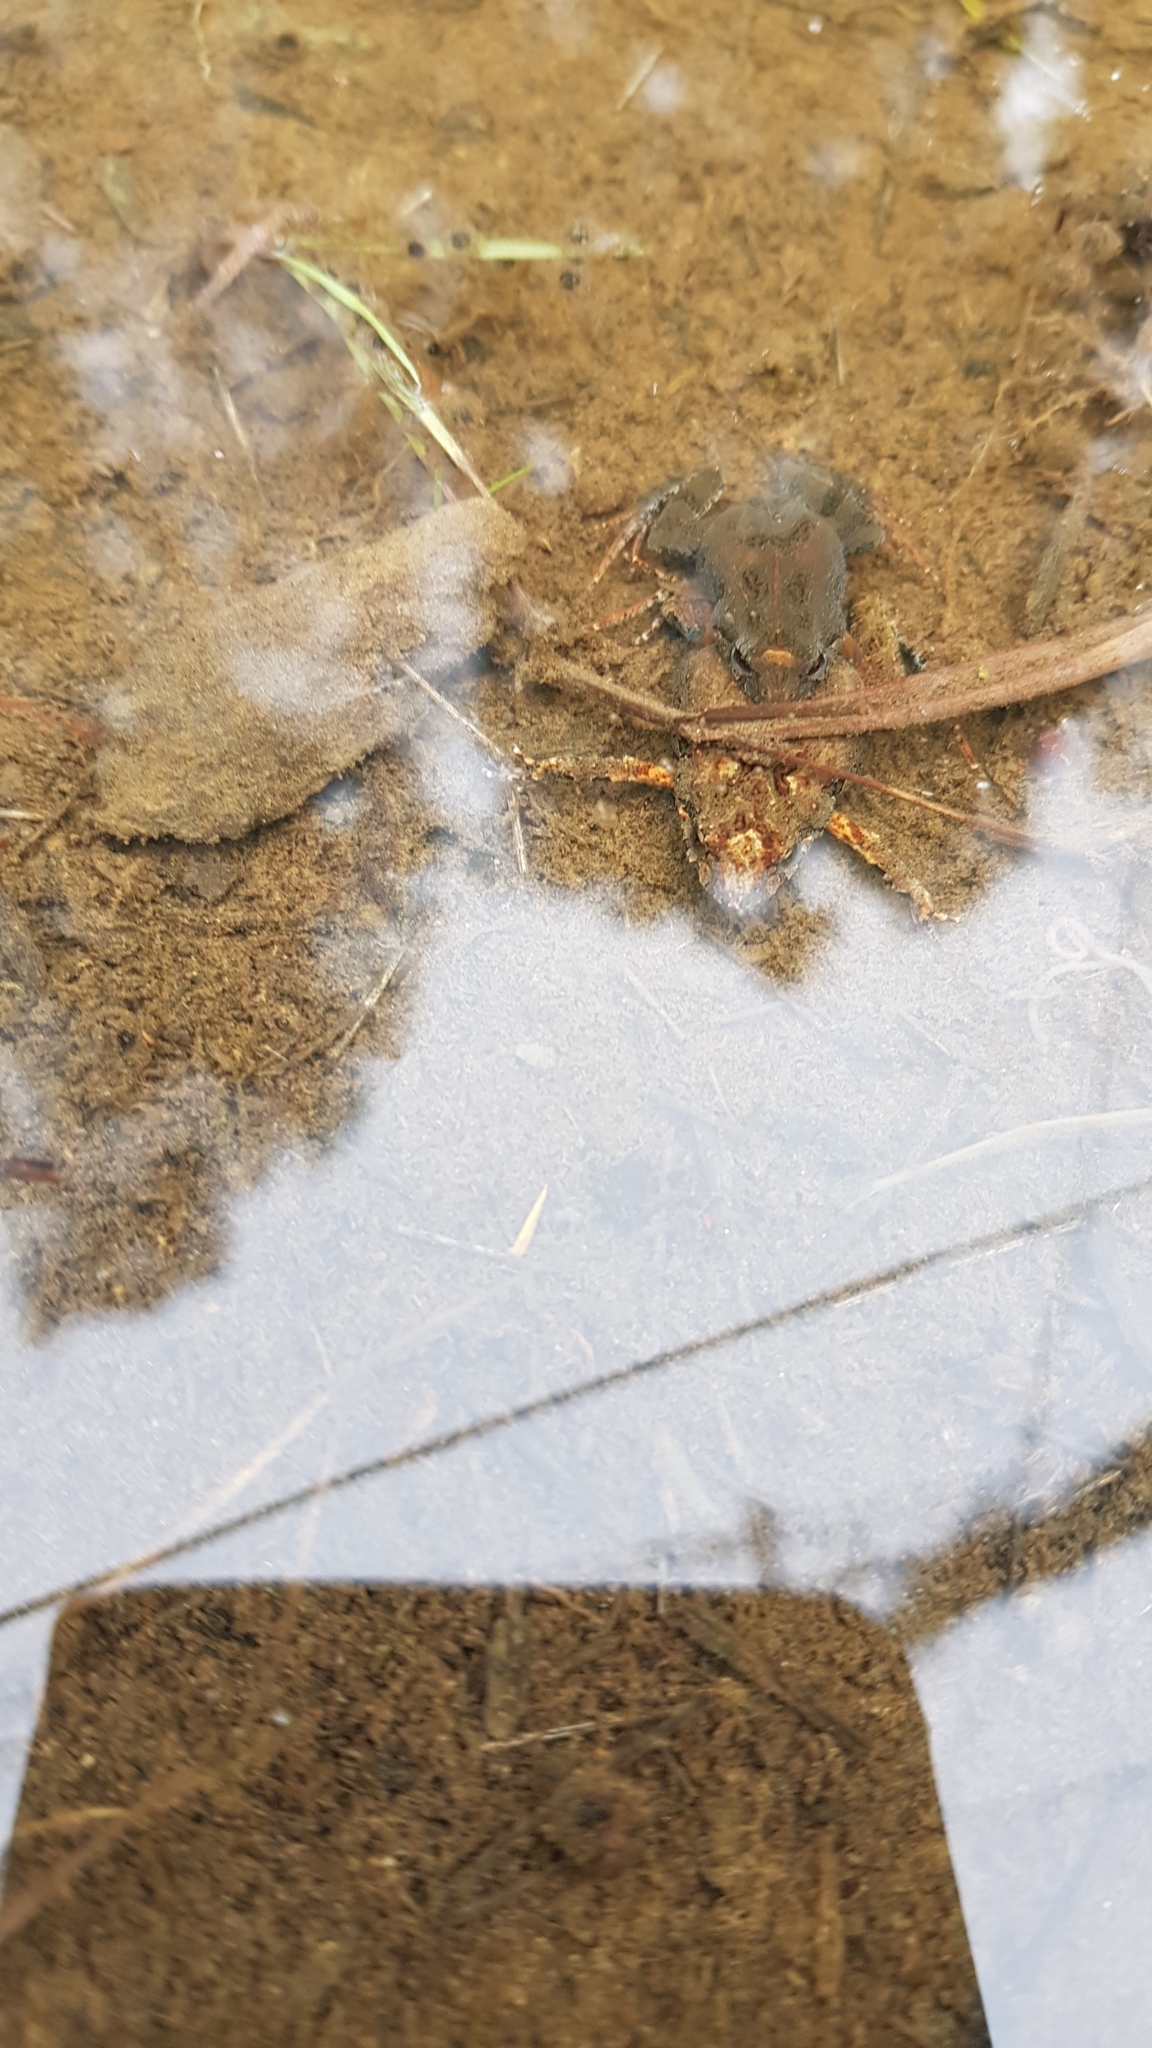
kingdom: Animalia
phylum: Chordata
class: Amphibia
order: Anura
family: Myobatrachidae
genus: Crinia
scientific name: Crinia signifera
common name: Brown froglet
